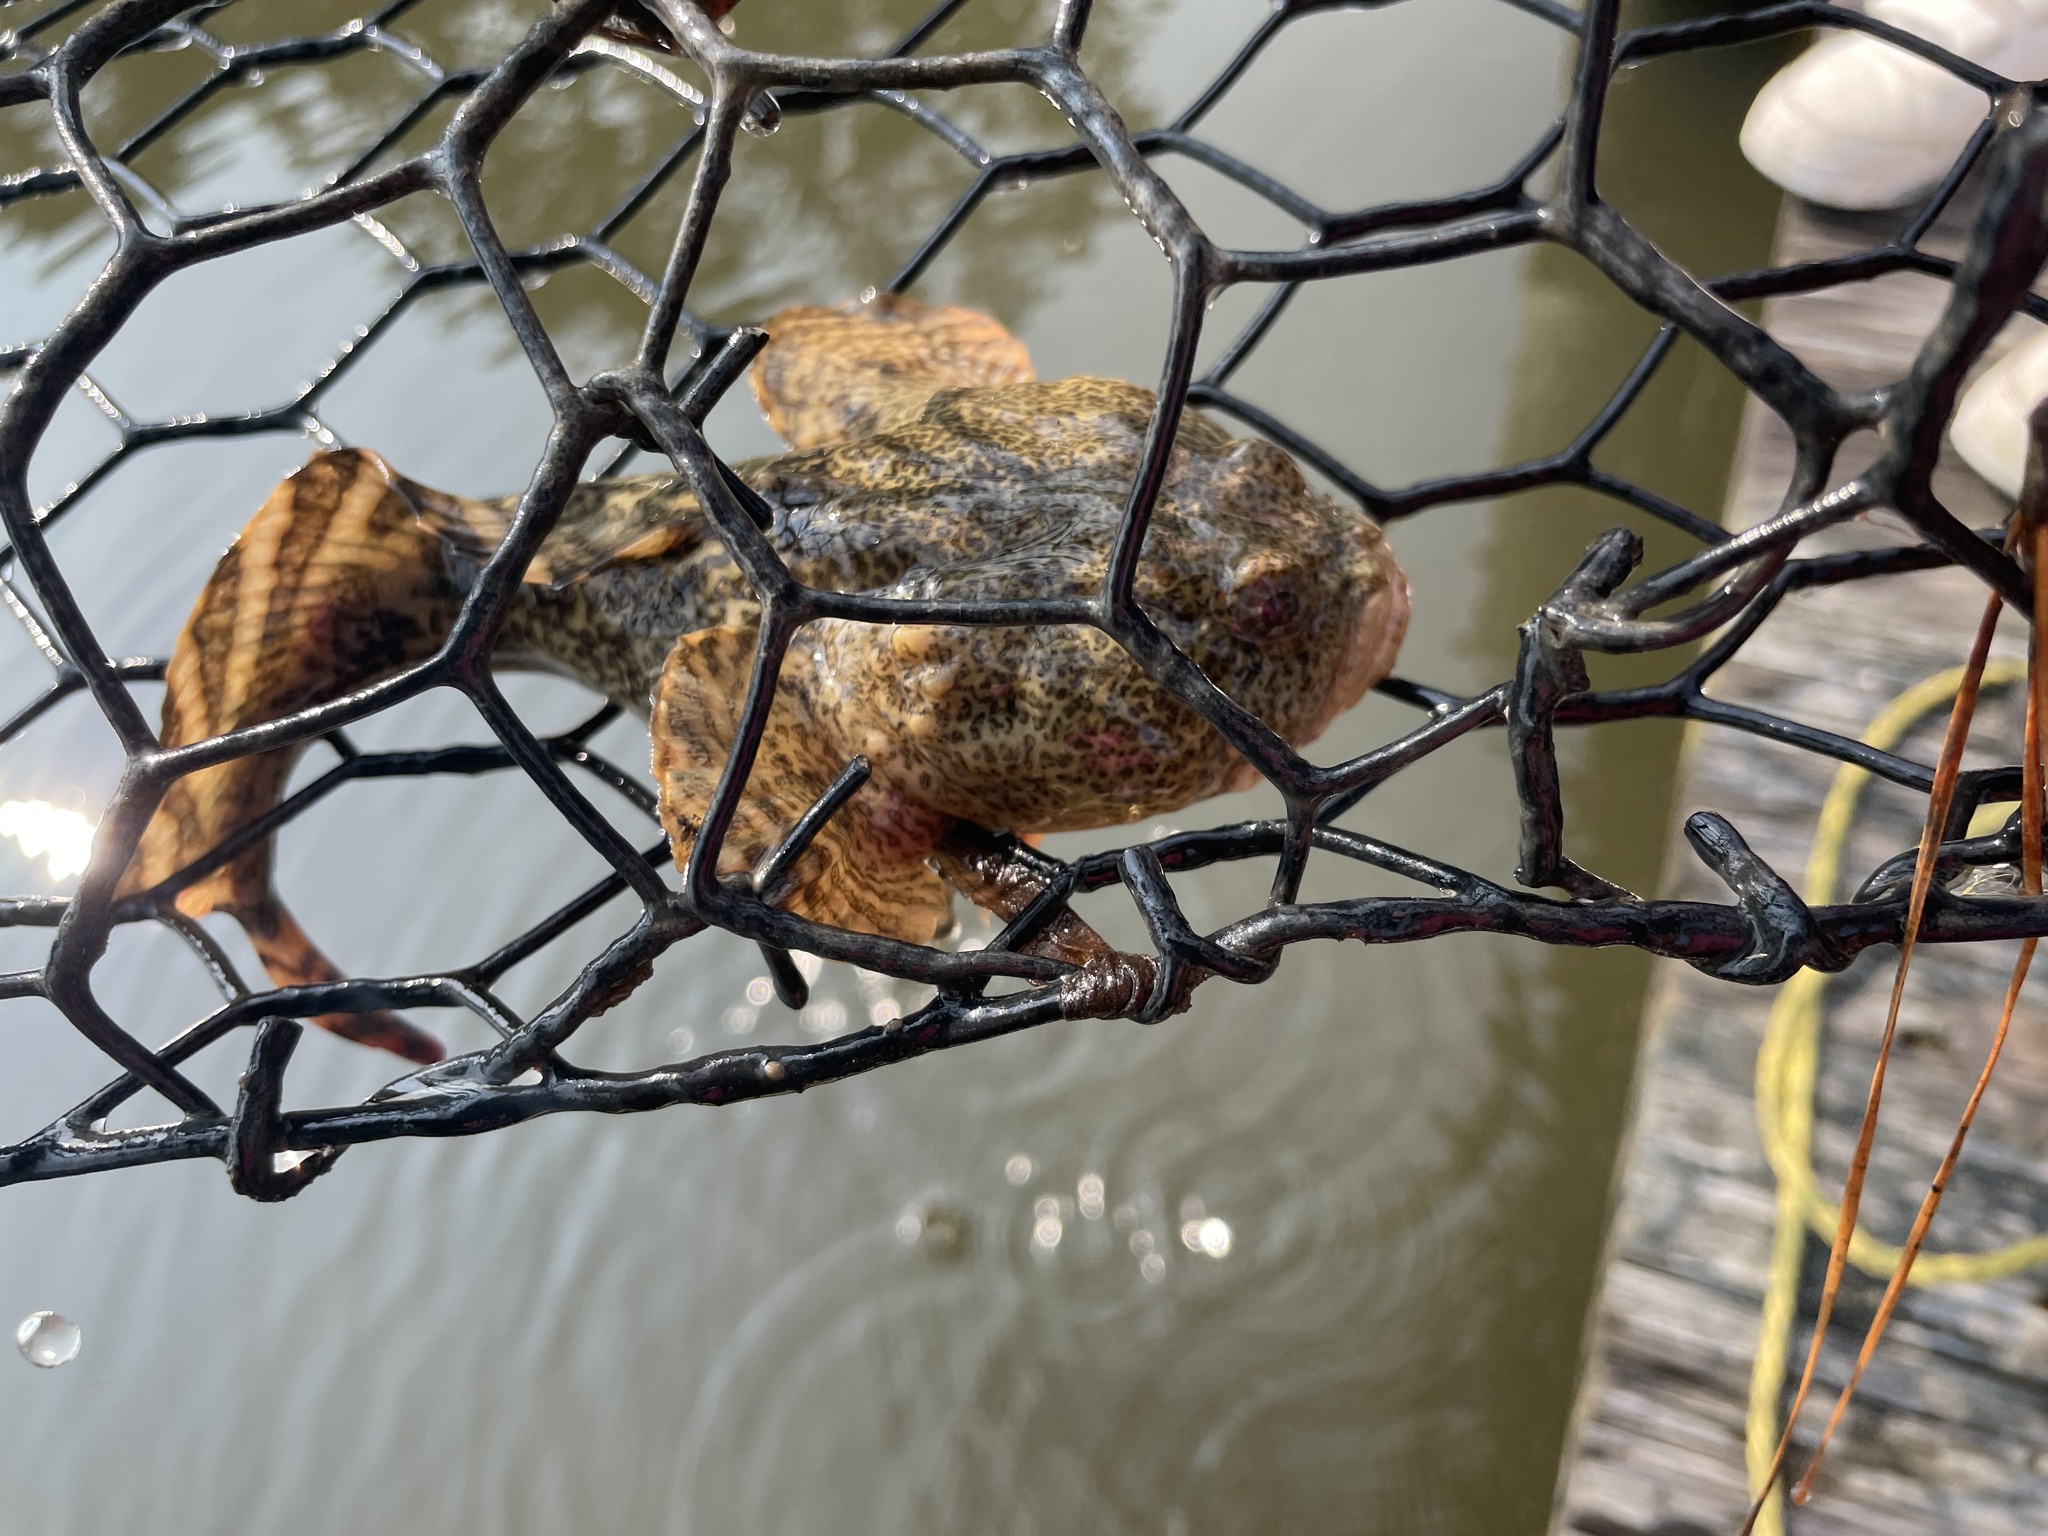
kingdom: Animalia
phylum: Chordata
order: Batrachoidiformes
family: Batrachoididae
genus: Opsanus
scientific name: Opsanus tau
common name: Oyster toadfish
